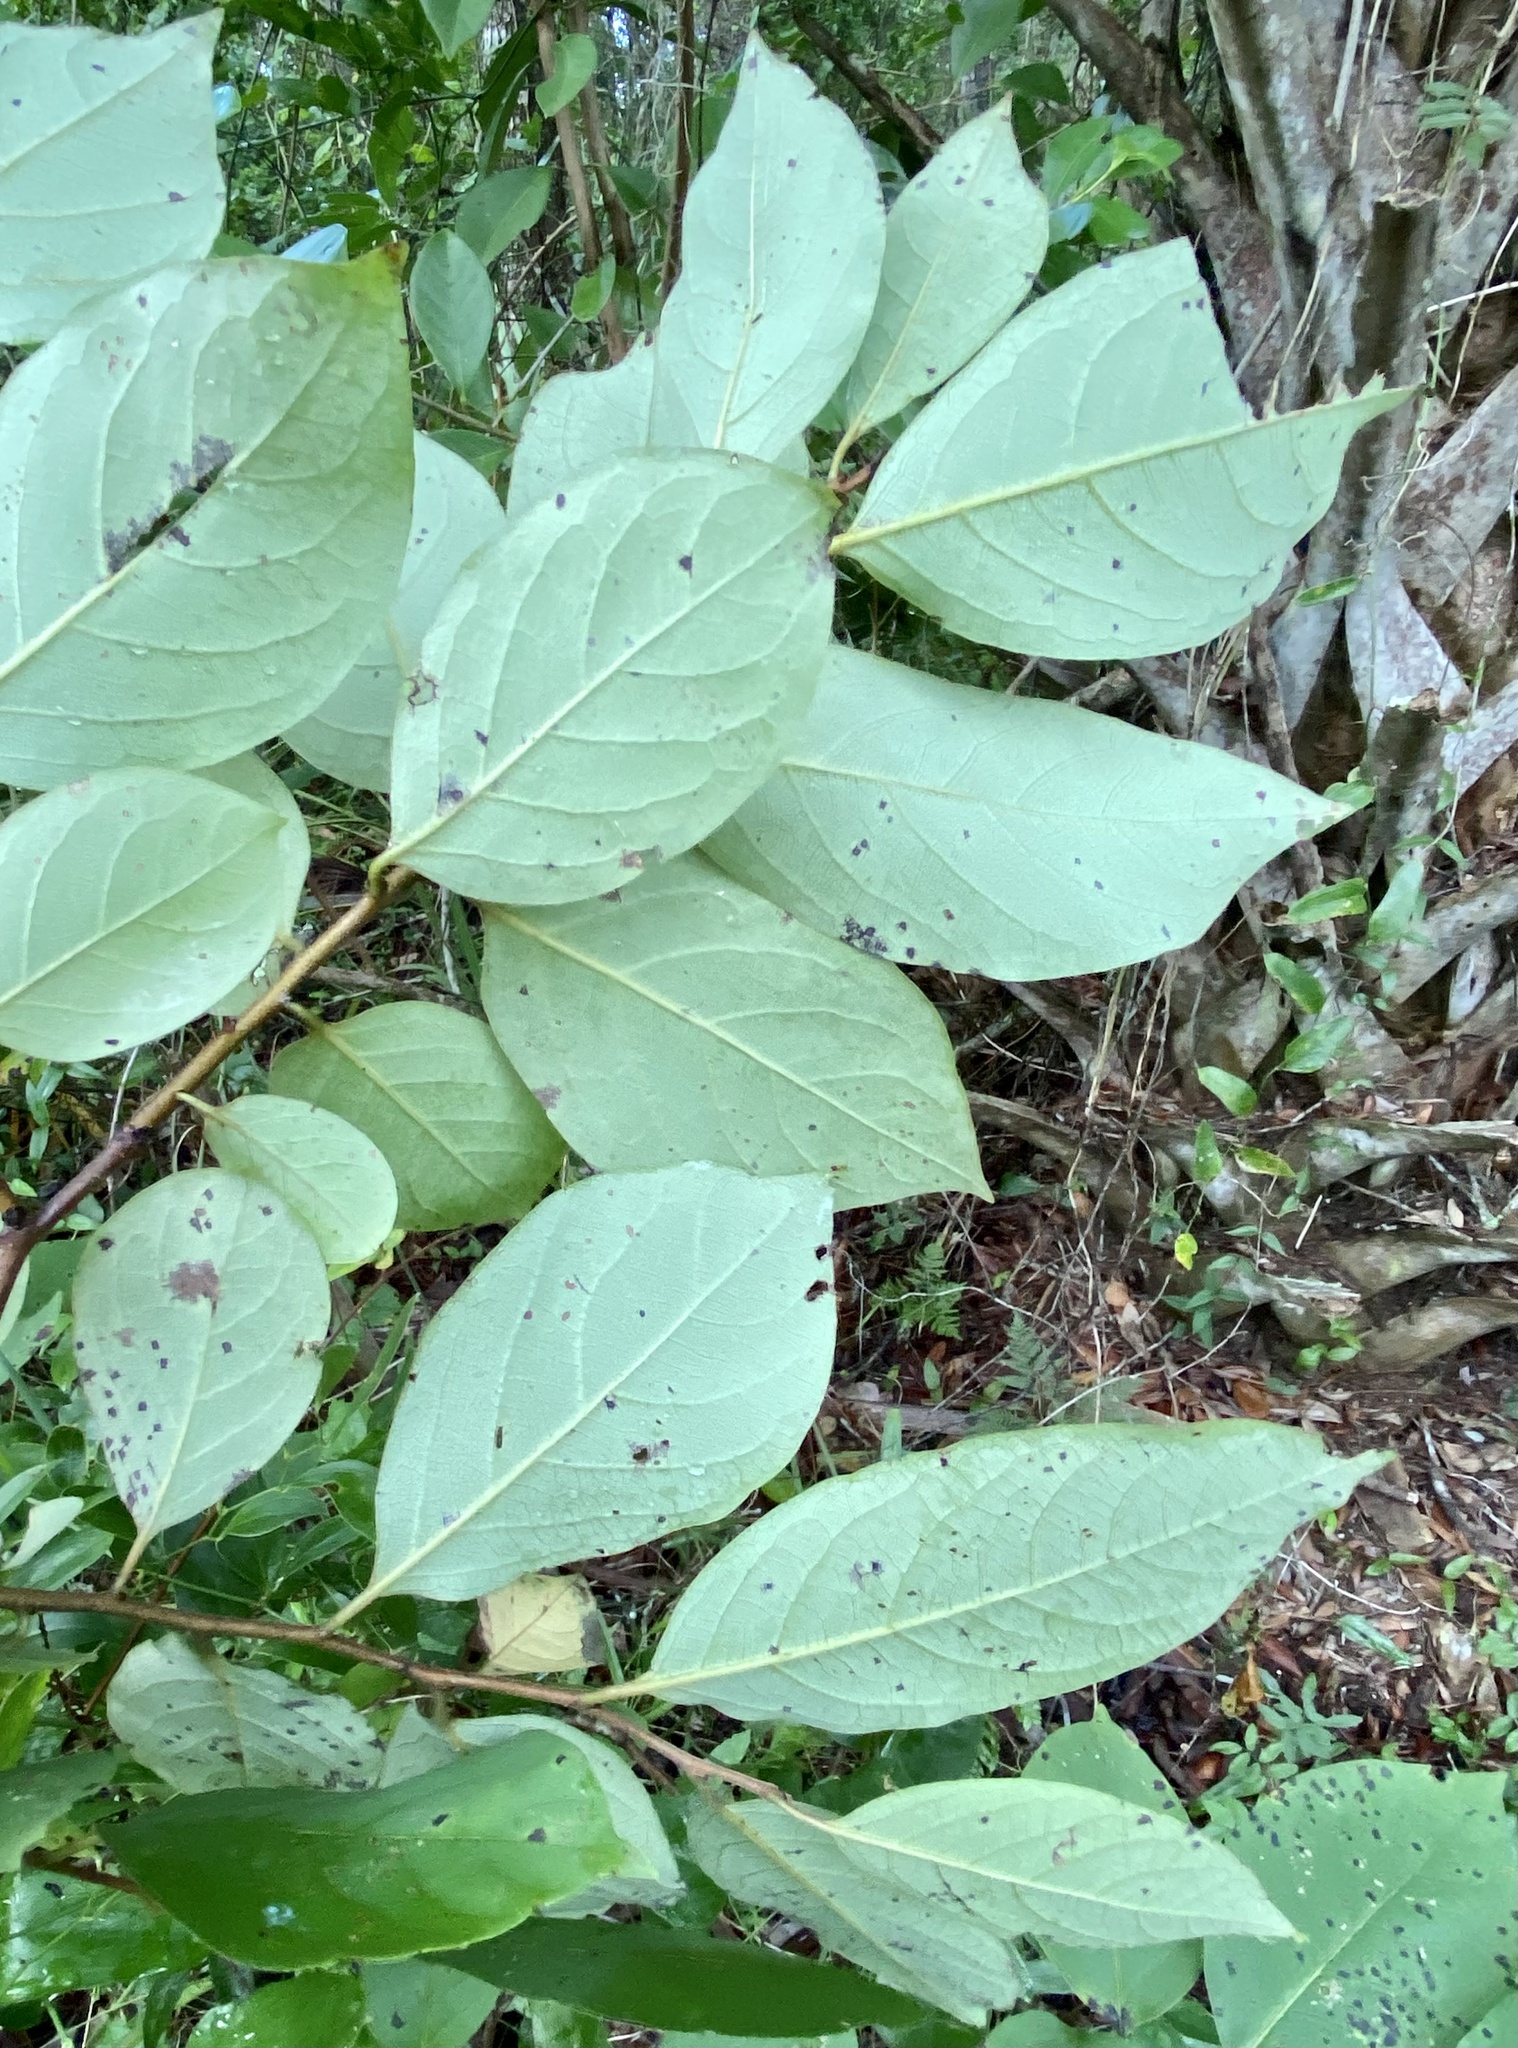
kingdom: Plantae
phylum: Tracheophyta
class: Magnoliopsida
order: Ericales
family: Ebenaceae
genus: Diospyros
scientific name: Diospyros virginiana
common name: Persimmon
